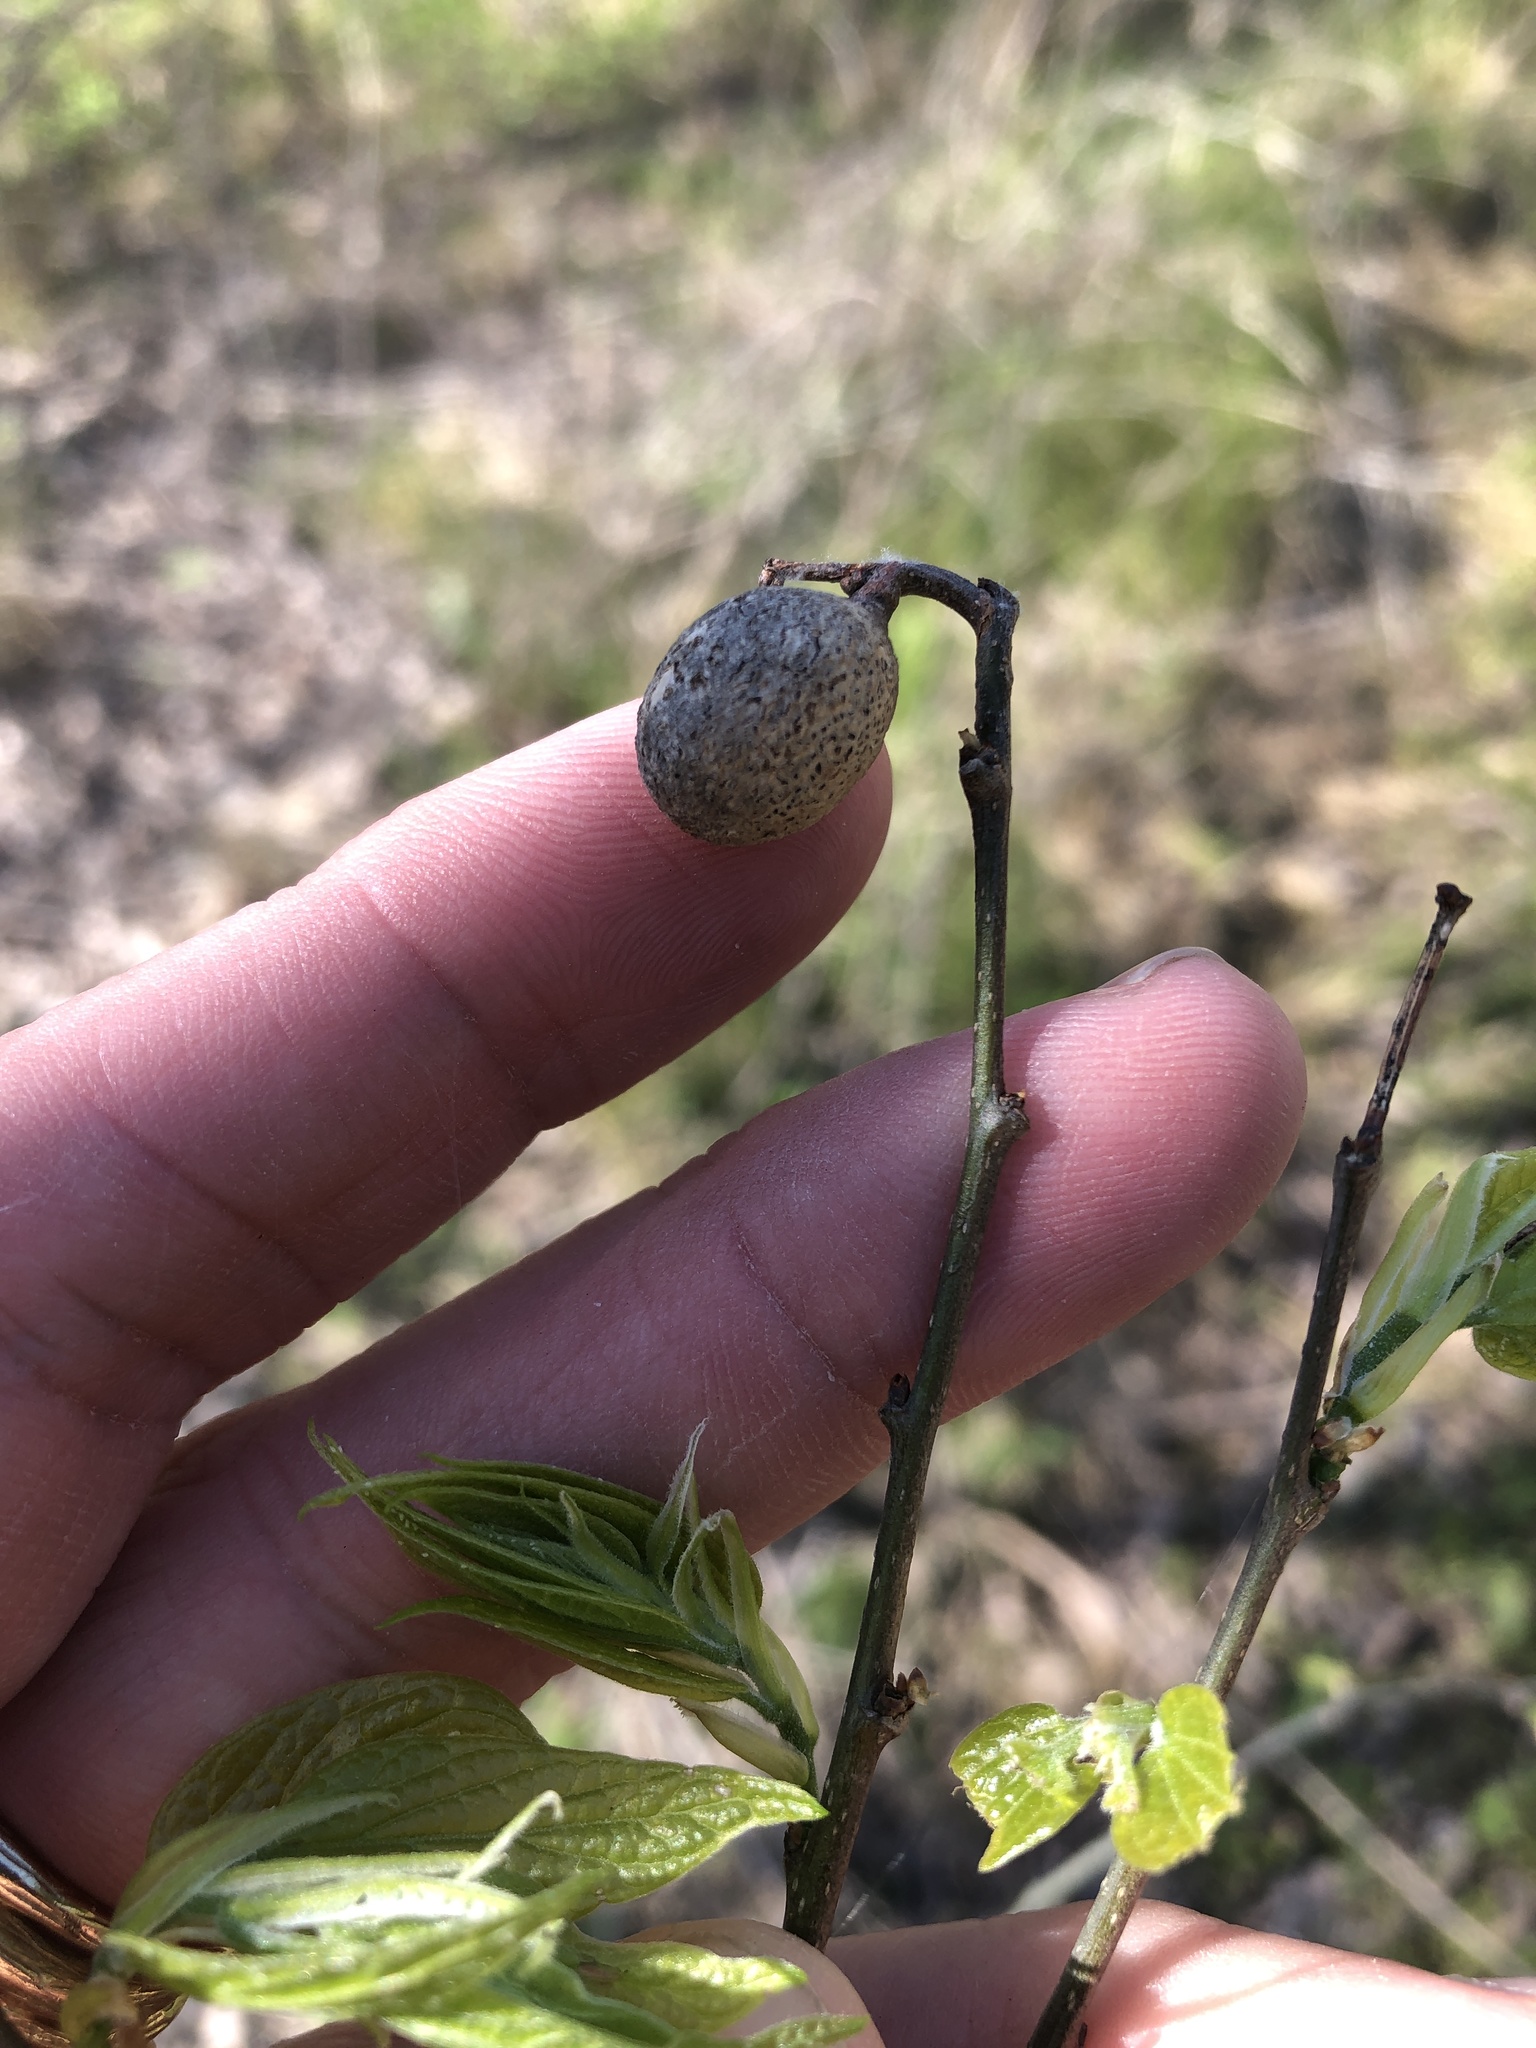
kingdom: Animalia
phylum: Arthropoda
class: Insecta
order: Hemiptera
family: Aphalaridae
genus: Pachypsylla
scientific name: Pachypsylla venusta
